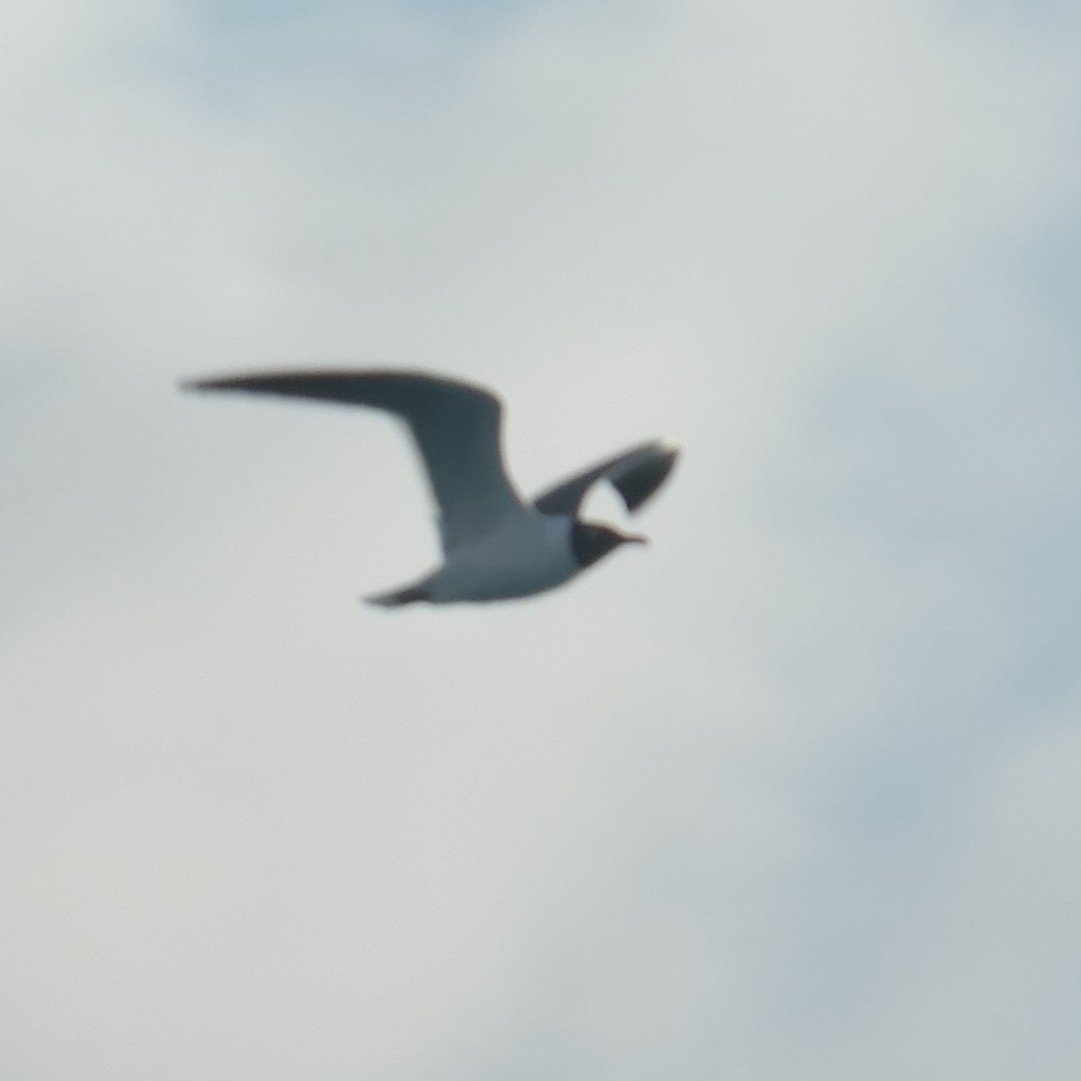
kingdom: Animalia
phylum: Chordata
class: Aves
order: Charadriiformes
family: Laridae
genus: Leucophaeus
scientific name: Leucophaeus atricilla
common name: Laughing gull
